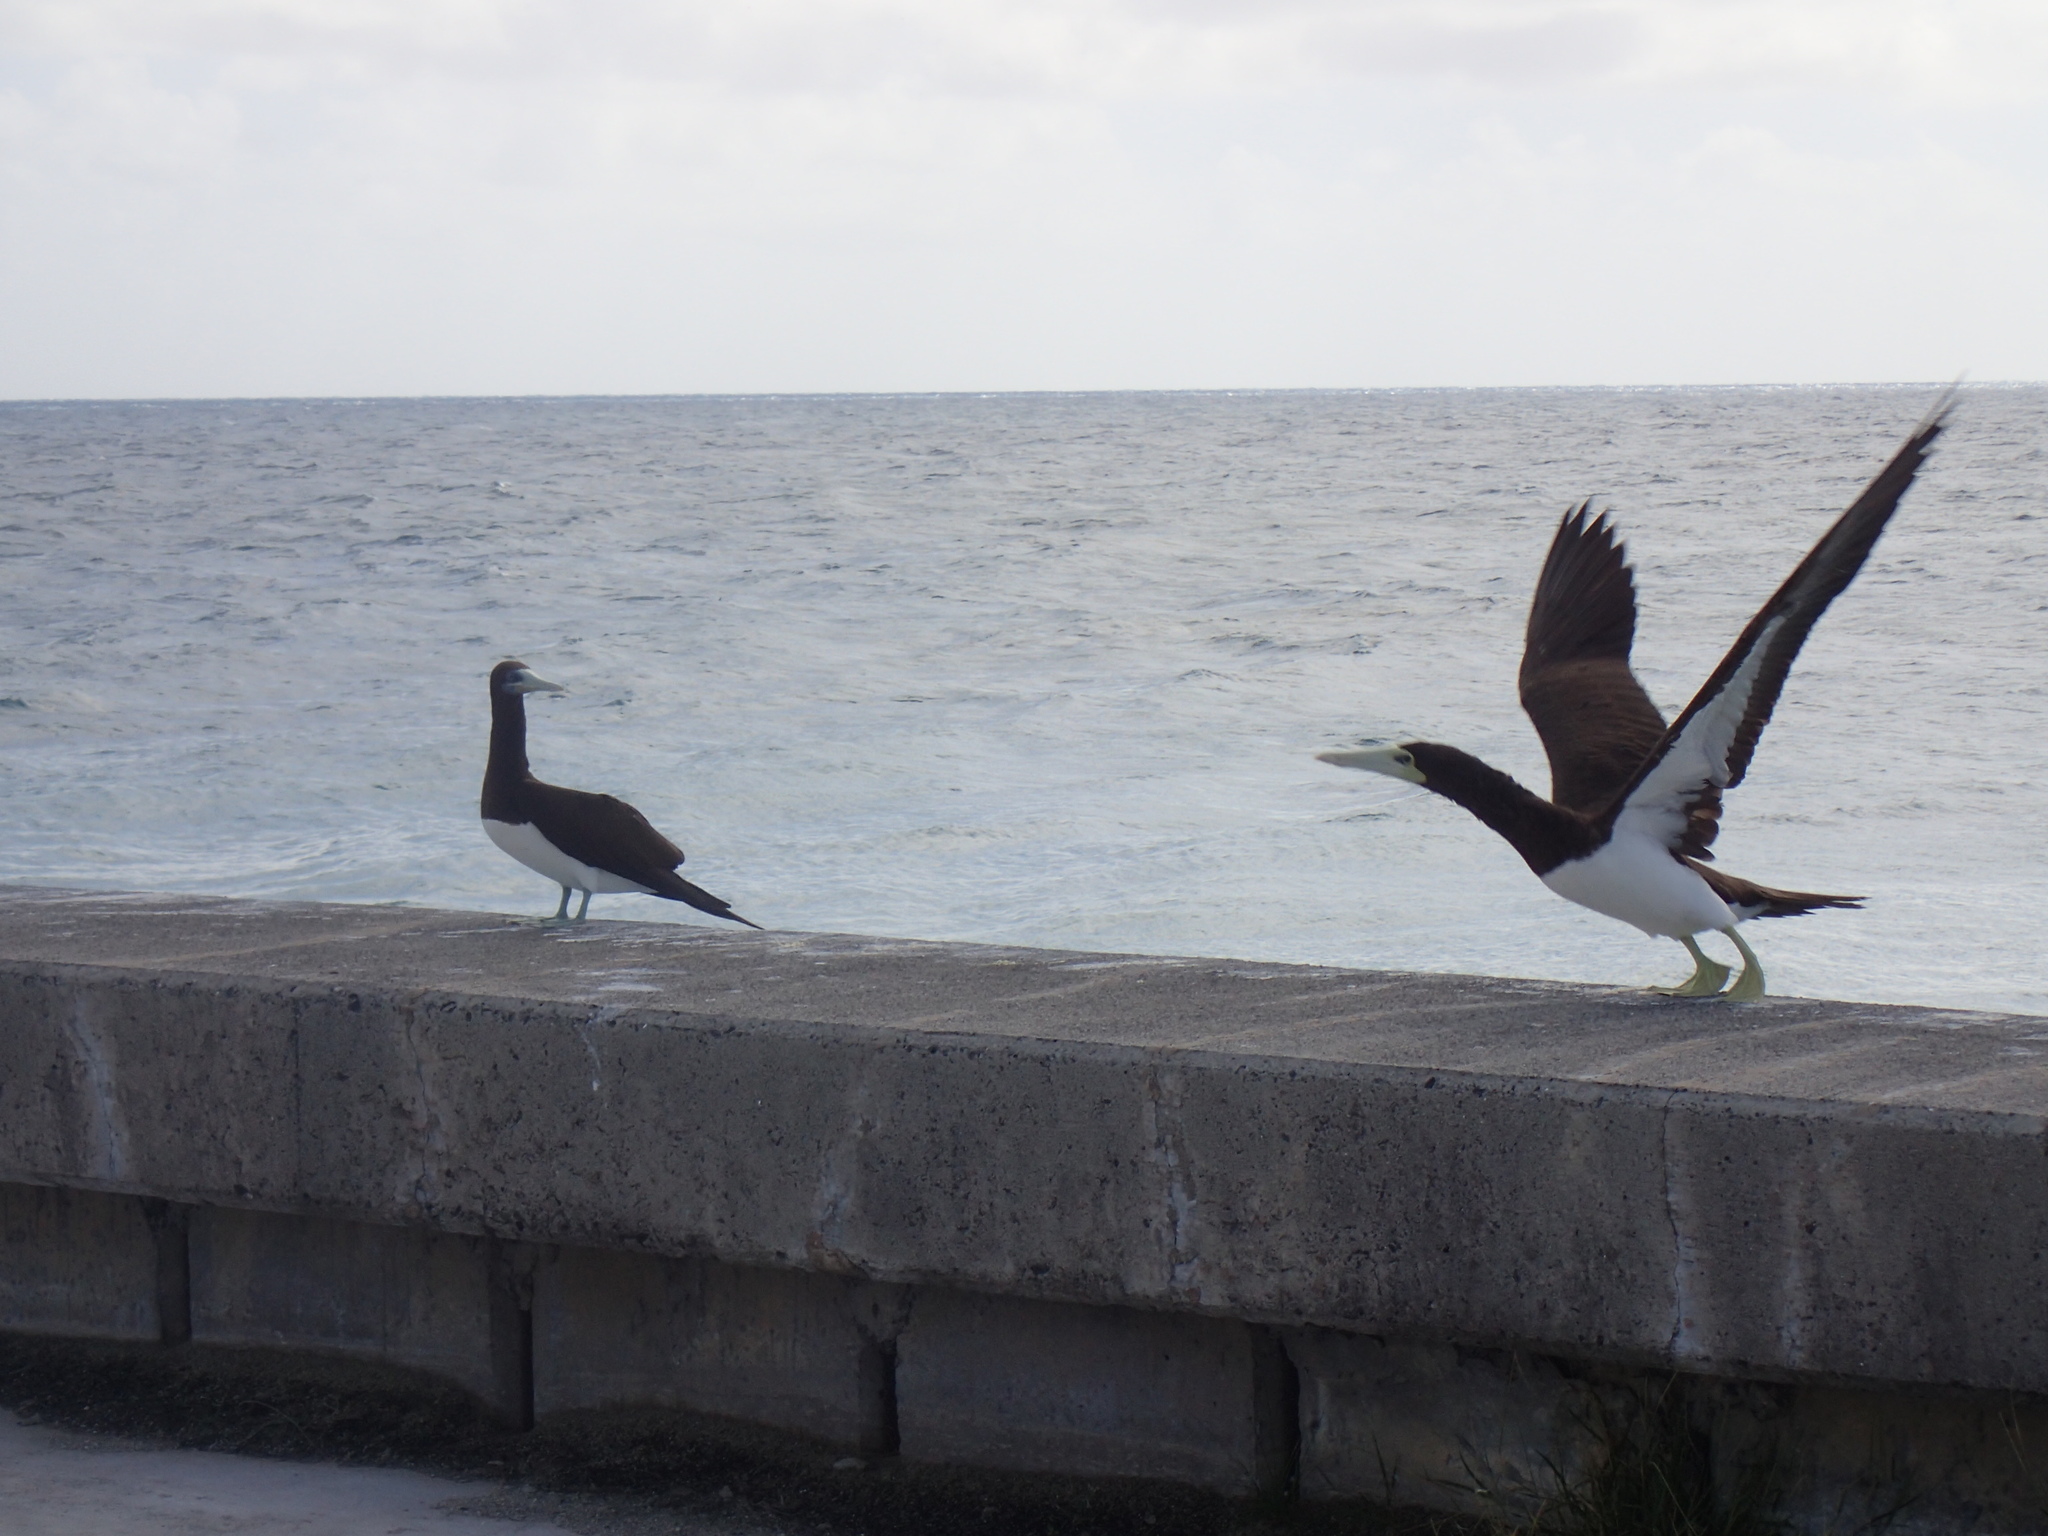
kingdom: Animalia
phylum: Chordata
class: Aves
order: Suliformes
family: Sulidae
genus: Sula
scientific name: Sula leucogaster
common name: Brown booby
